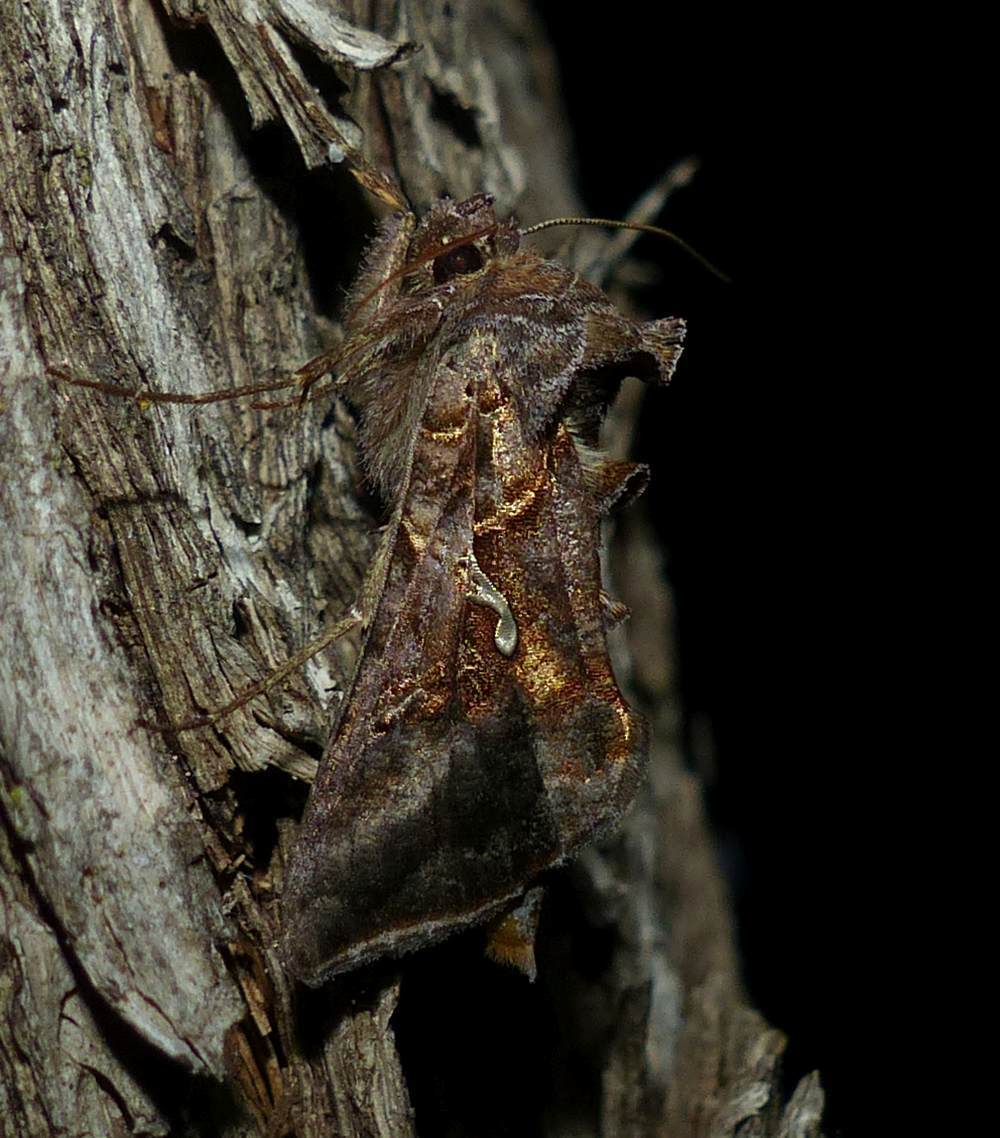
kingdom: Animalia
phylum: Arthropoda
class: Insecta
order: Lepidoptera
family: Noctuidae
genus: Autographa
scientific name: Autographa precationis
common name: Common looper moth
